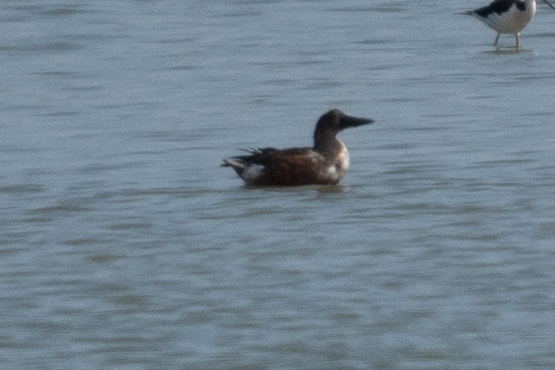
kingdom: Animalia
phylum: Chordata
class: Aves
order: Anseriformes
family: Anatidae
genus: Spatula
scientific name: Spatula clypeata
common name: Northern shoveler
